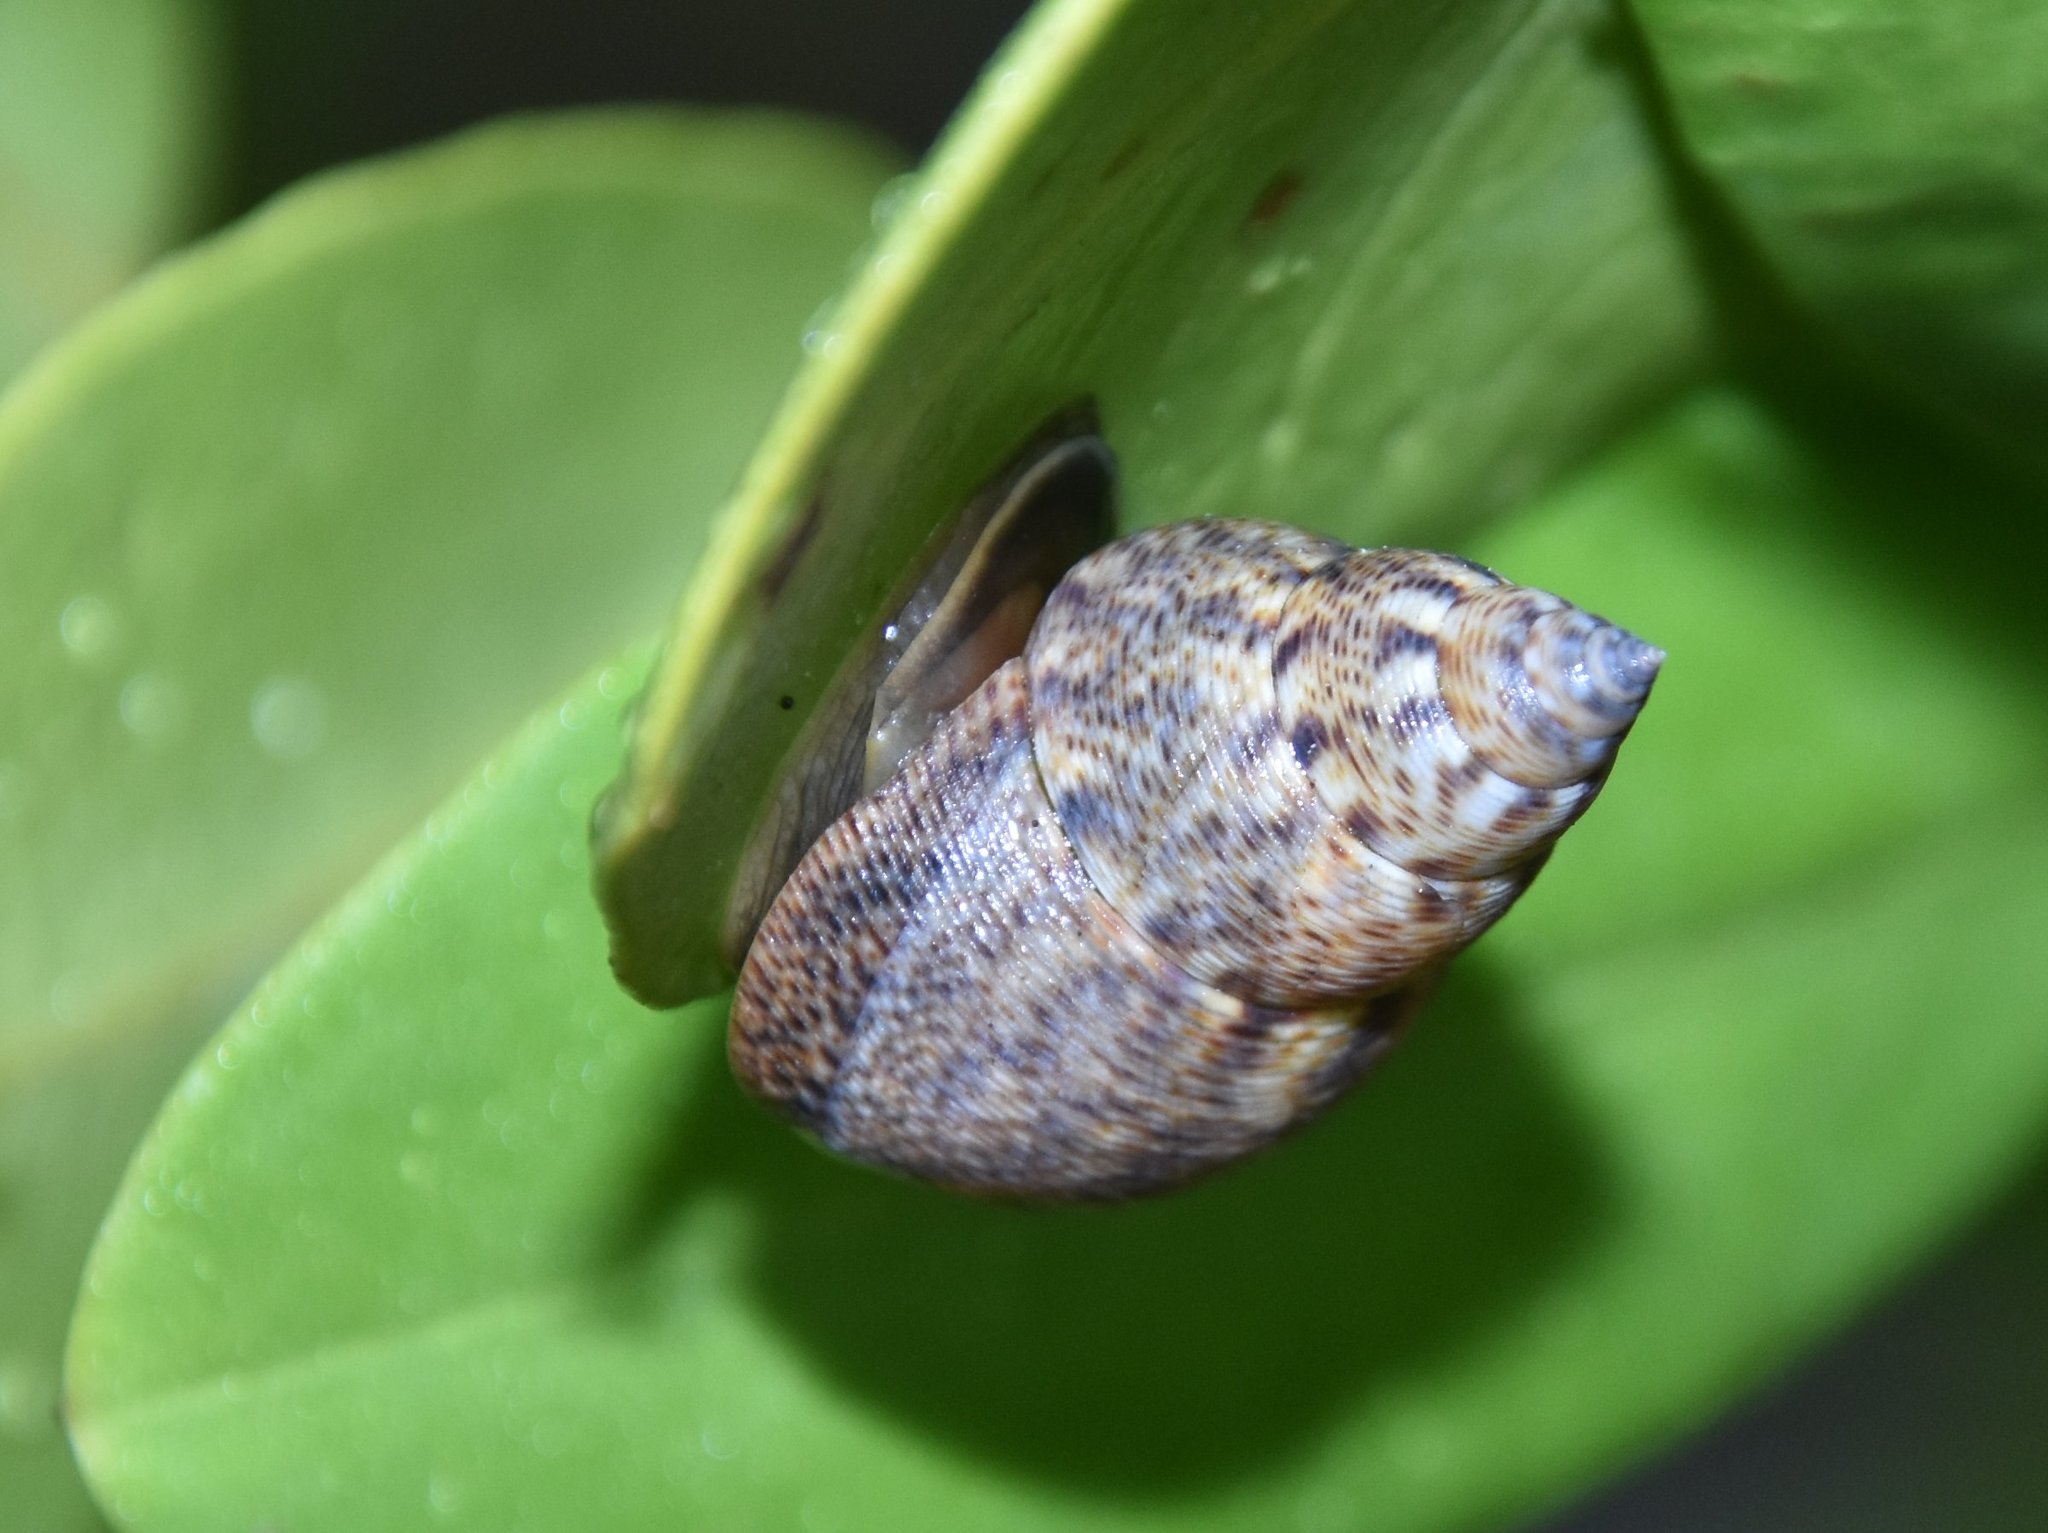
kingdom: Animalia
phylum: Mollusca
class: Gastropoda
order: Littorinimorpha
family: Littorinidae
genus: Littoraria
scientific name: Littoraria angulifera
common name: Mangrove periwinkle
